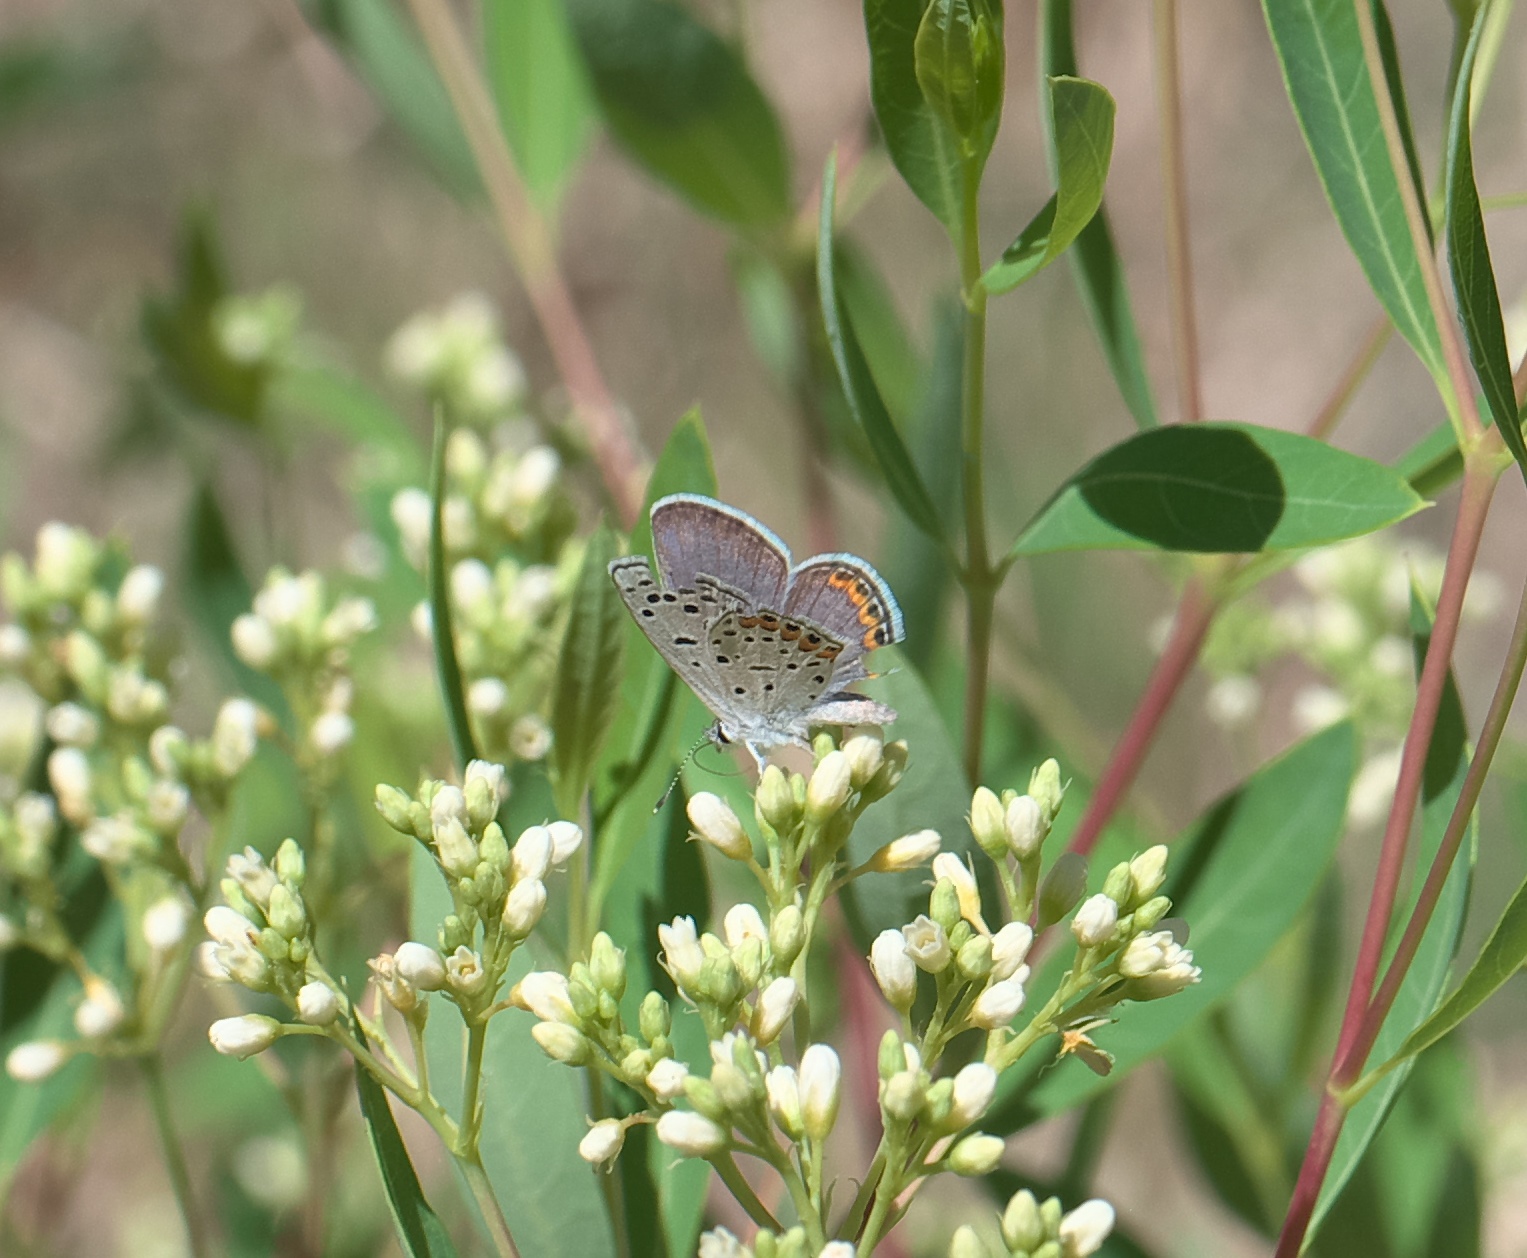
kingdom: Animalia
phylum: Arthropoda
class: Insecta
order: Lepidoptera
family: Lycaenidae
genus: Icaricia
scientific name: Icaricia lupini
